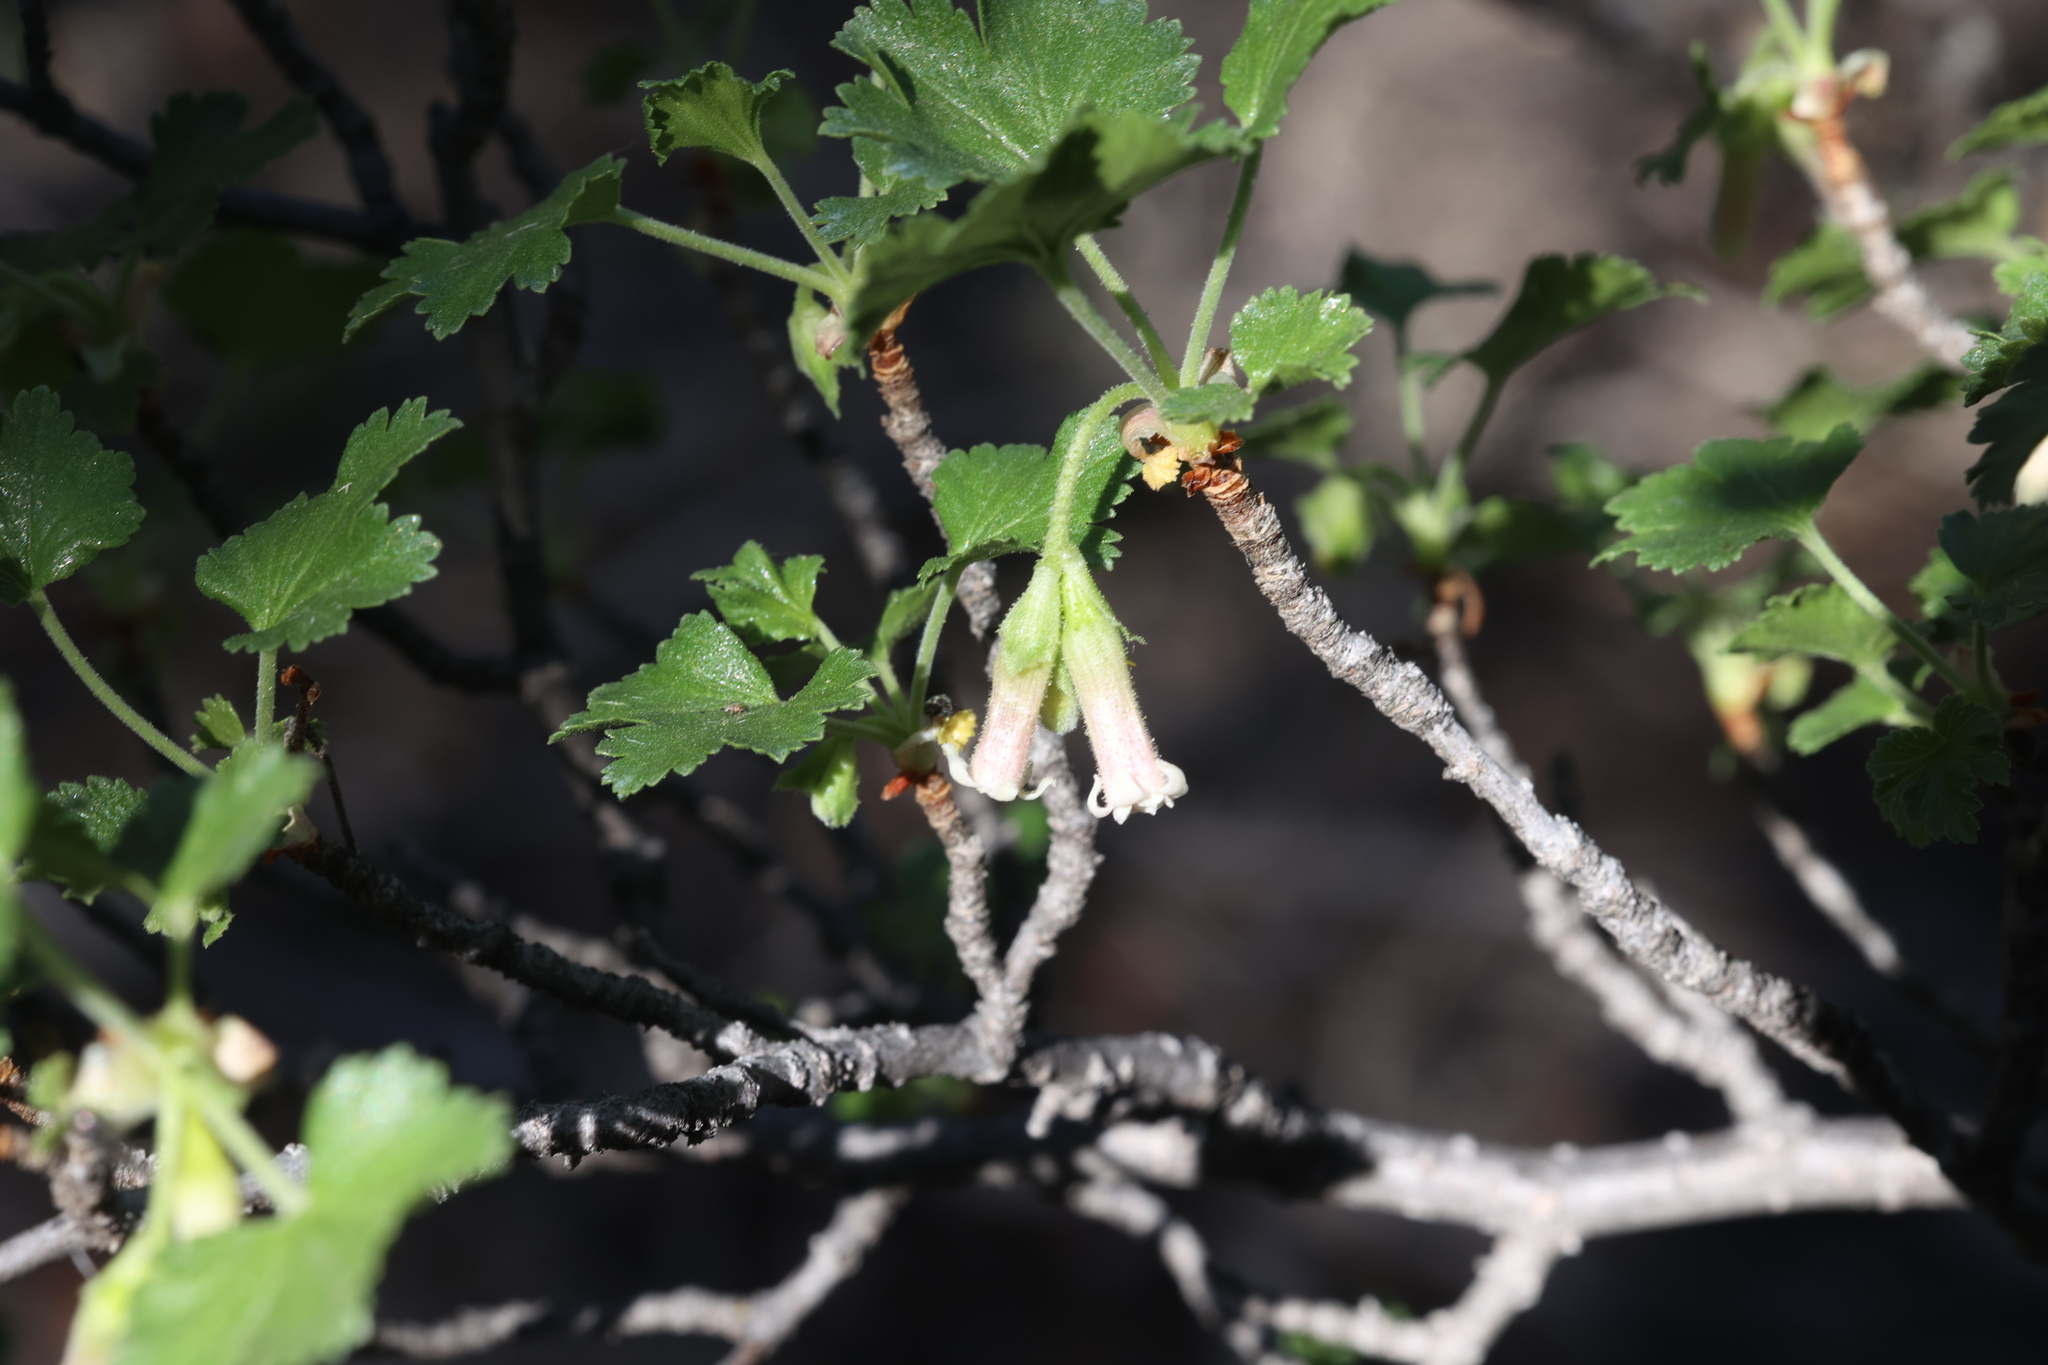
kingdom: Plantae
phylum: Tracheophyta
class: Magnoliopsida
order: Saxifragales
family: Grossulariaceae
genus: Ribes
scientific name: Ribes cereum
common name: Wax currant
